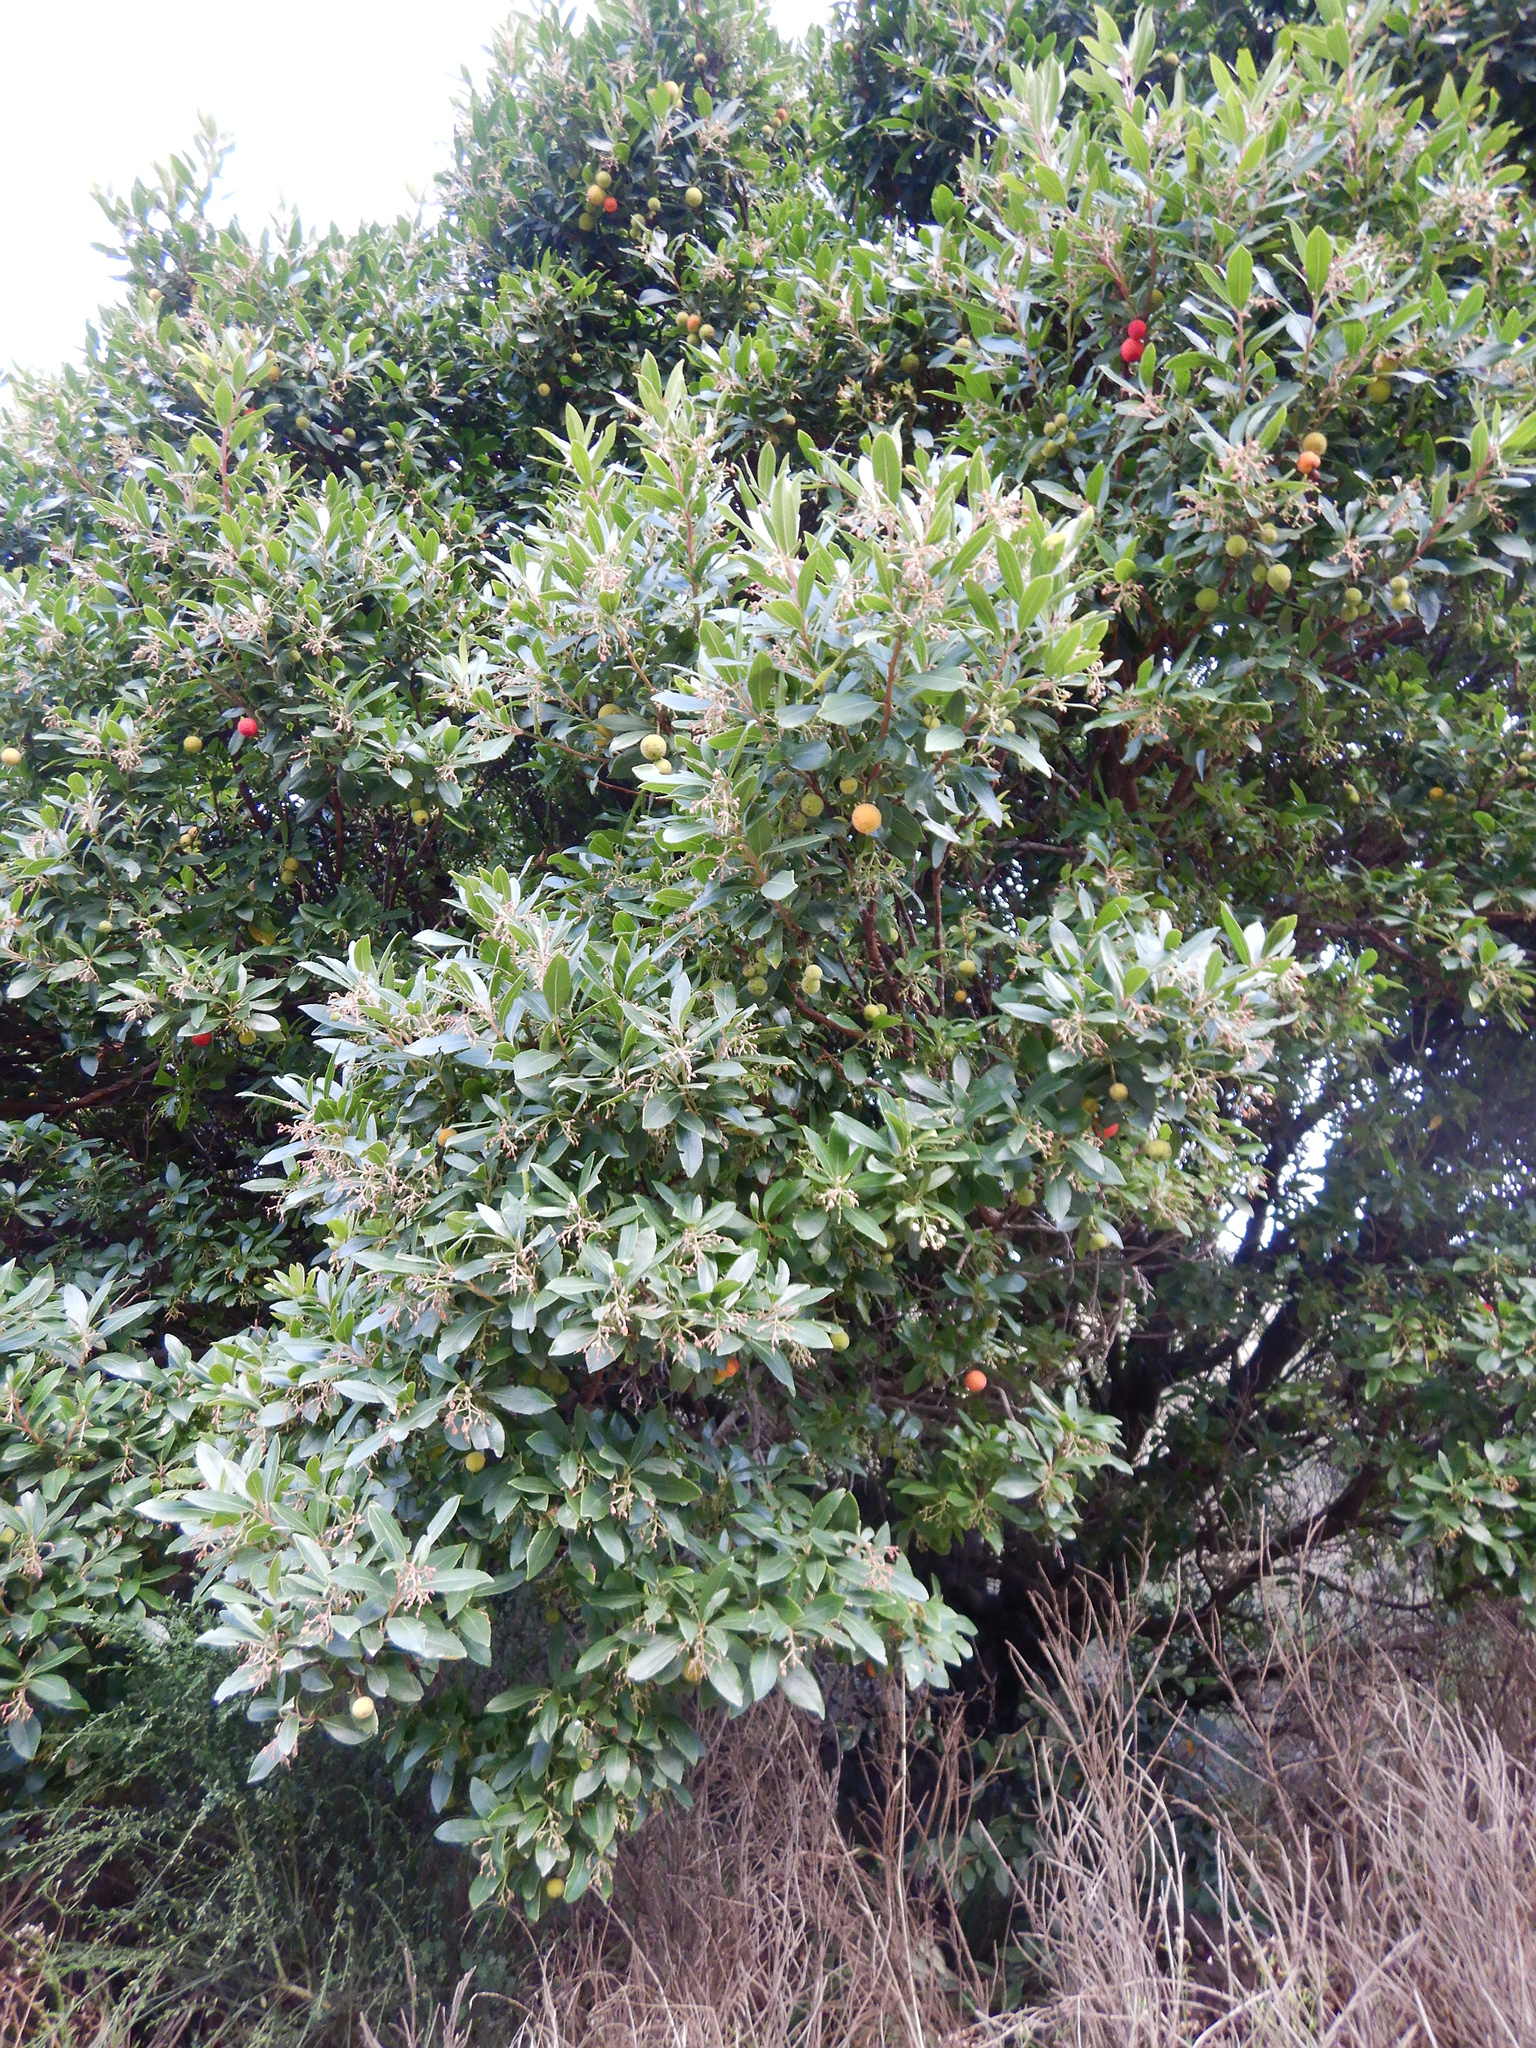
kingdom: Plantae
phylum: Tracheophyta
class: Magnoliopsida
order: Ericales
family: Ericaceae
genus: Arbutus
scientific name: Arbutus unedo
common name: Strawberry-tree
